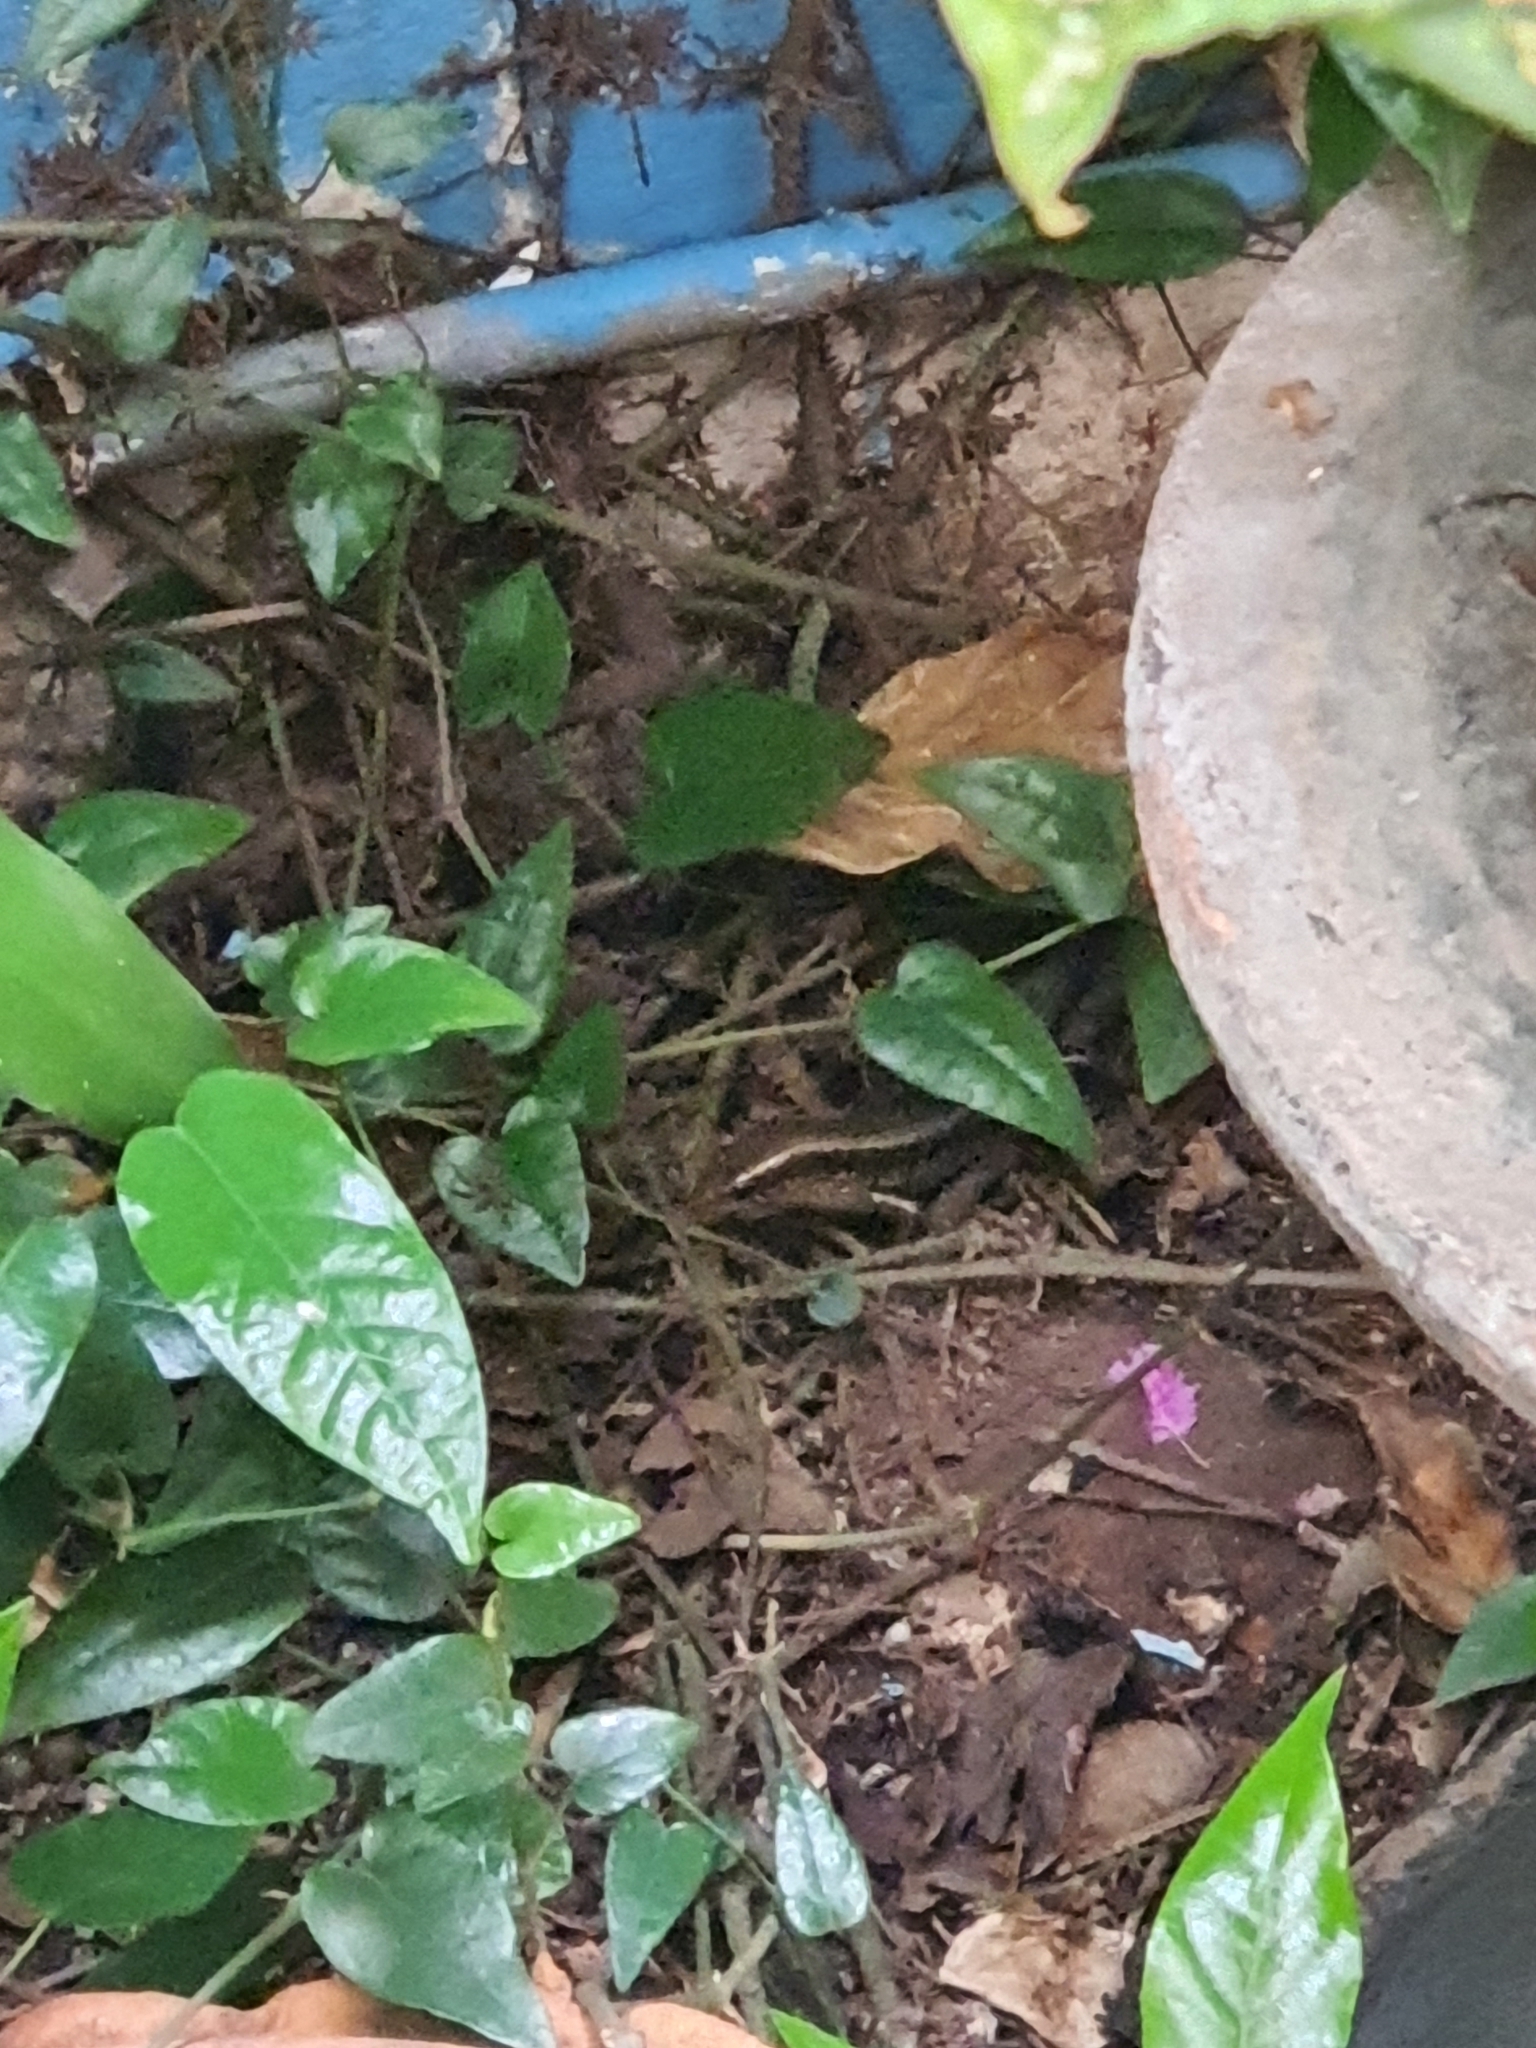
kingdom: Animalia
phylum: Chordata
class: Squamata
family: Scincidae
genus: Eutropis
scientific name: Eutropis multifasciata
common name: Common mabuya
